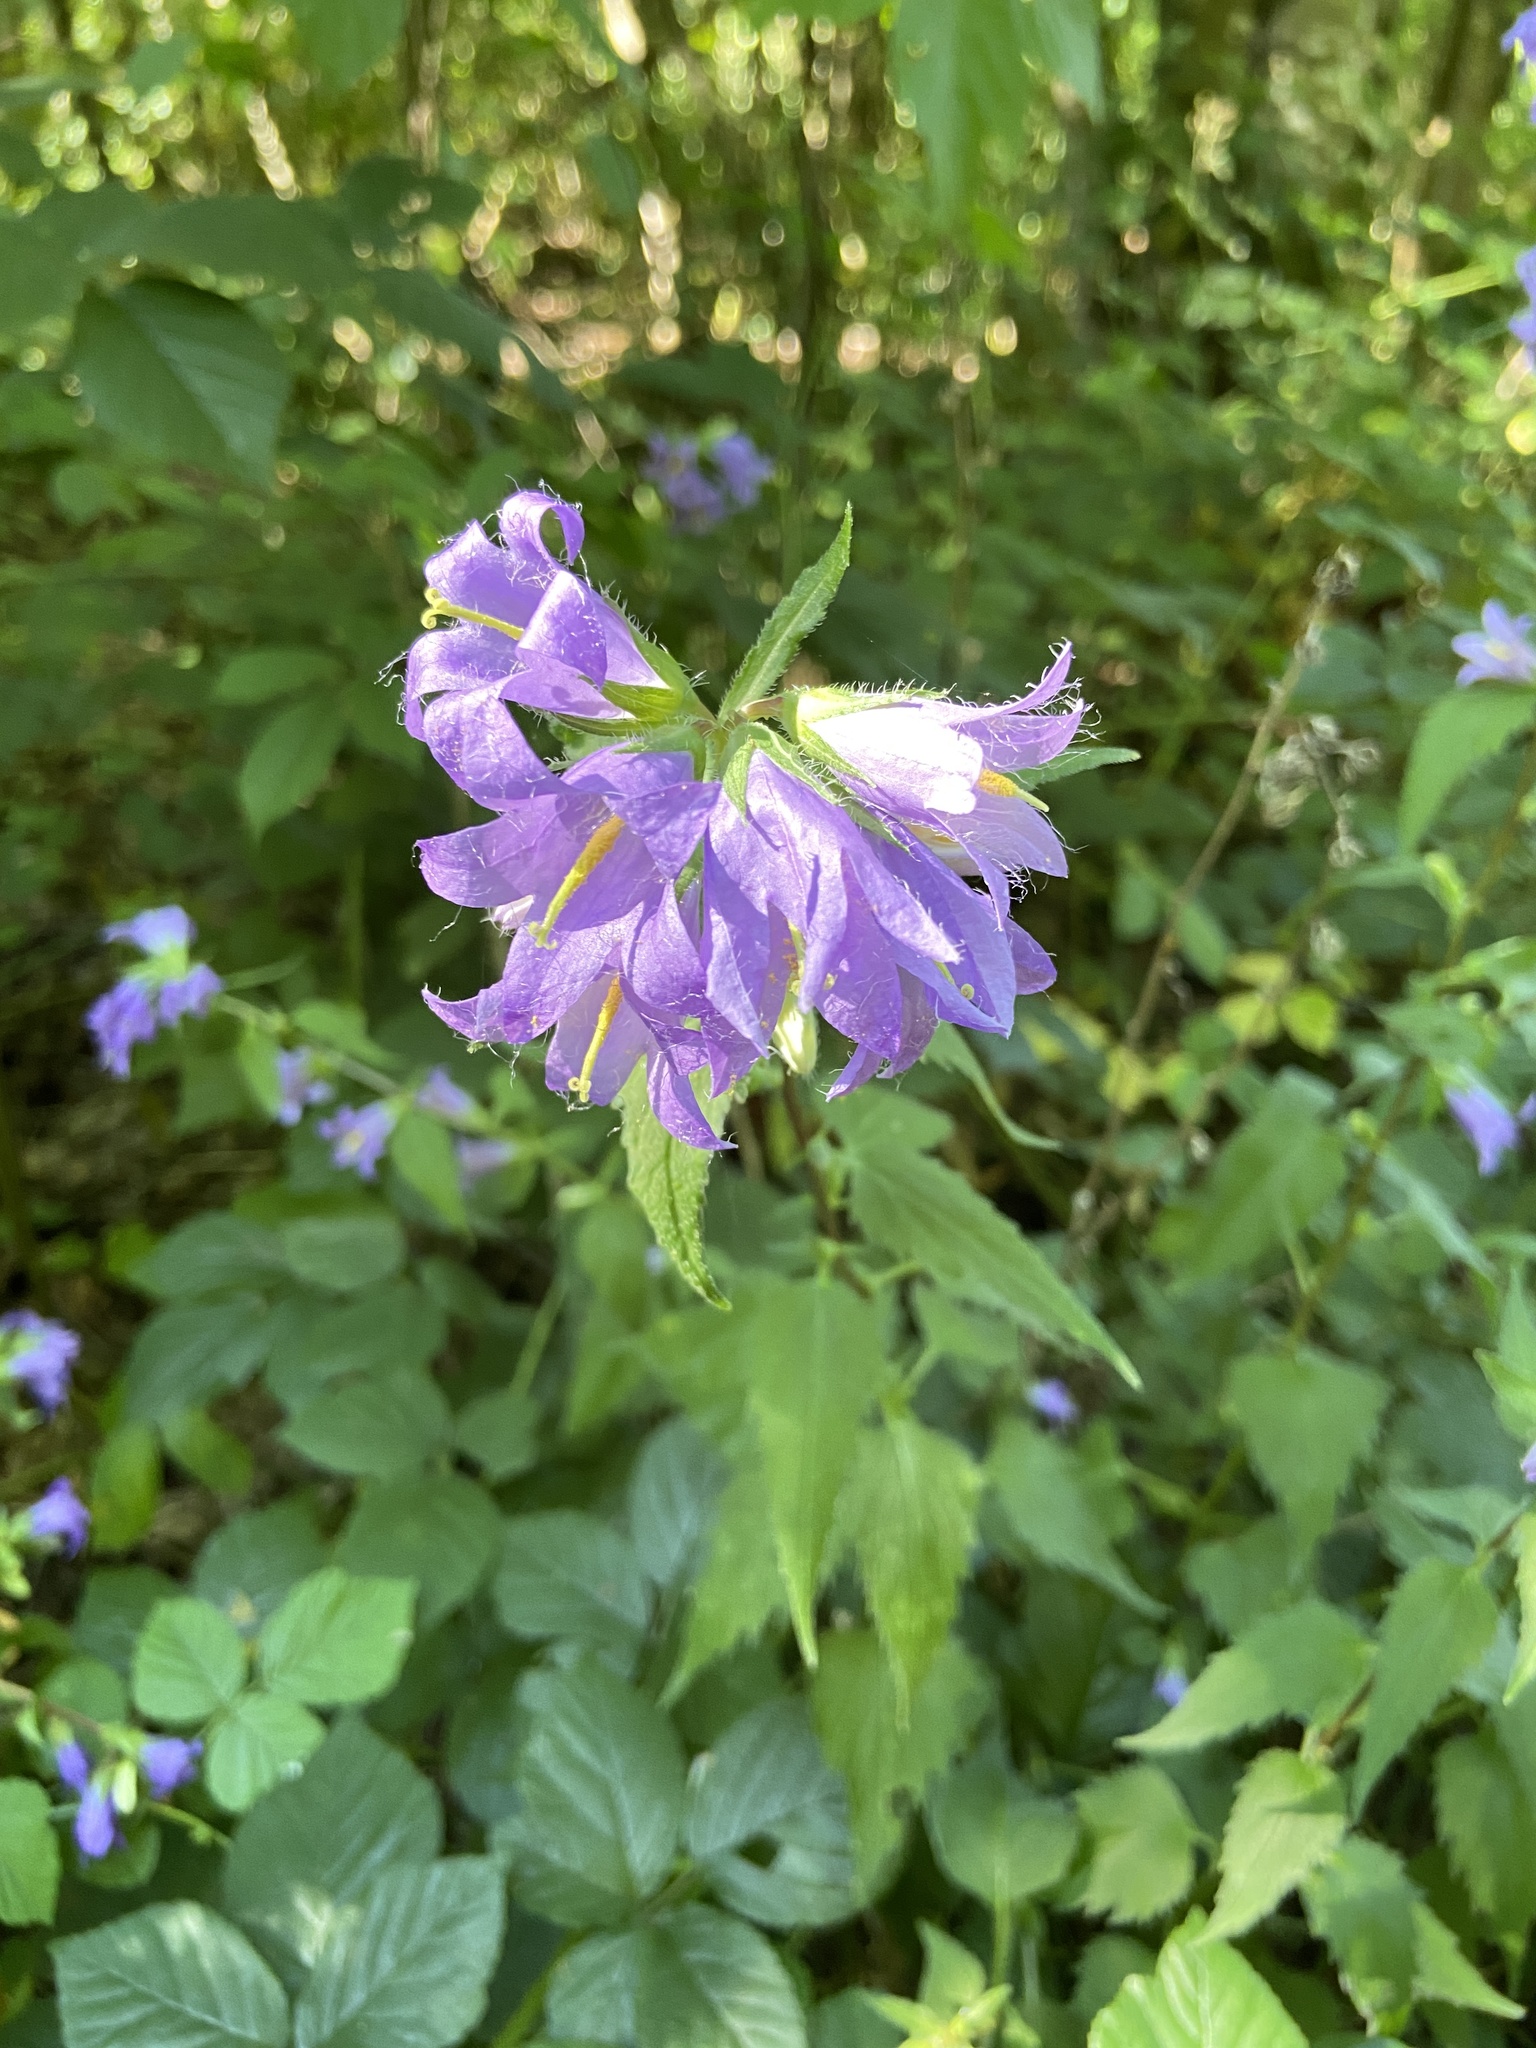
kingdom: Plantae
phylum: Tracheophyta
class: Magnoliopsida
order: Asterales
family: Campanulaceae
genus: Campanula
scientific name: Campanula trachelium
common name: Nettle-leaved bellflower
